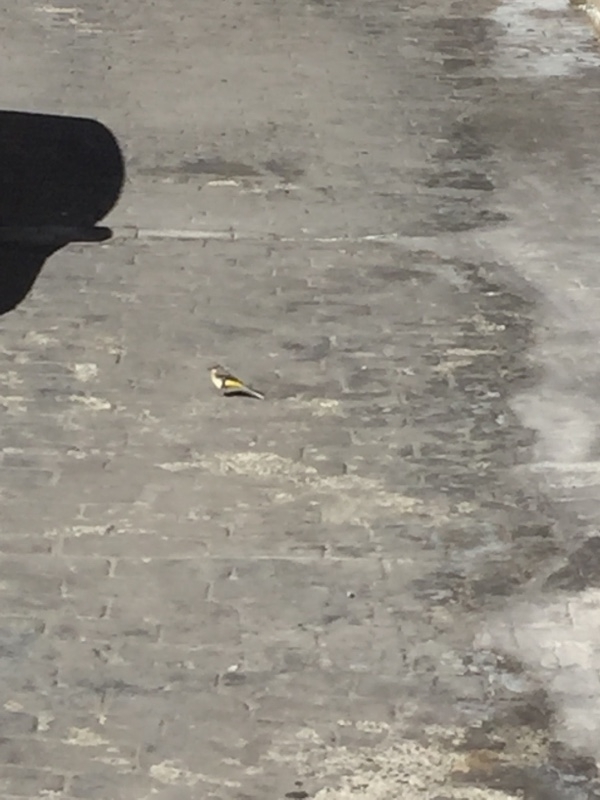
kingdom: Animalia
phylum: Chordata
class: Aves
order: Passeriformes
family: Motacillidae
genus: Motacilla
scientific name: Motacilla cinerea
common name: Grey wagtail
